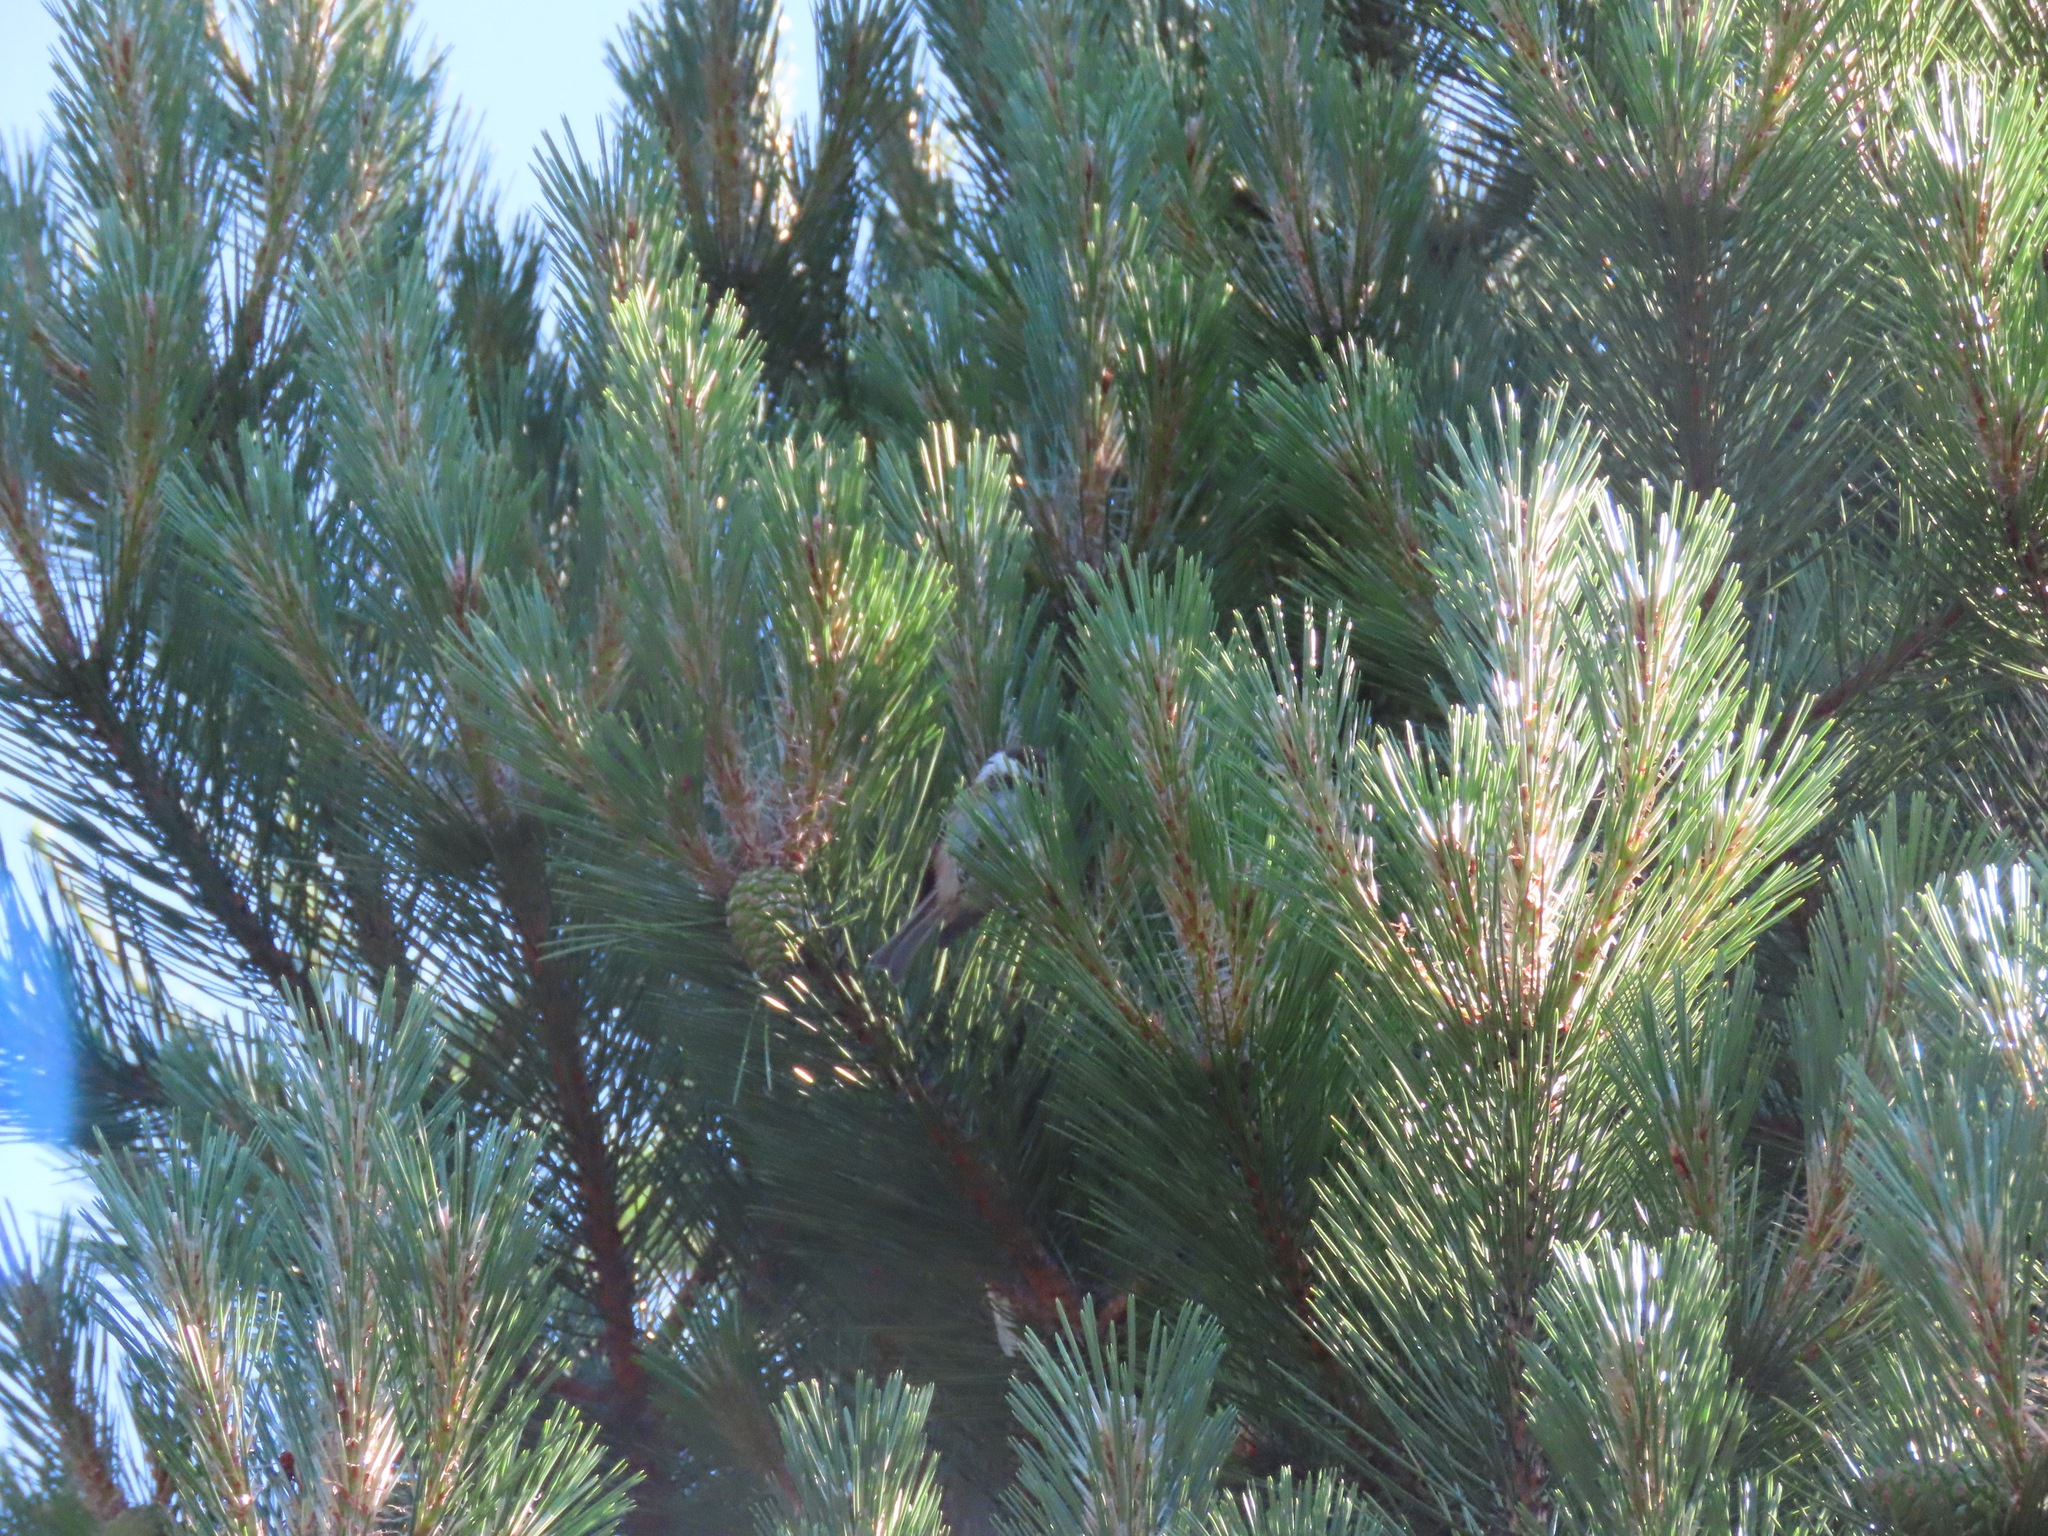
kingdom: Animalia
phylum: Chordata
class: Aves
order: Passeriformes
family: Paridae
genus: Poecile
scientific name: Poecile rufescens
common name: Chestnut-backed chickadee
